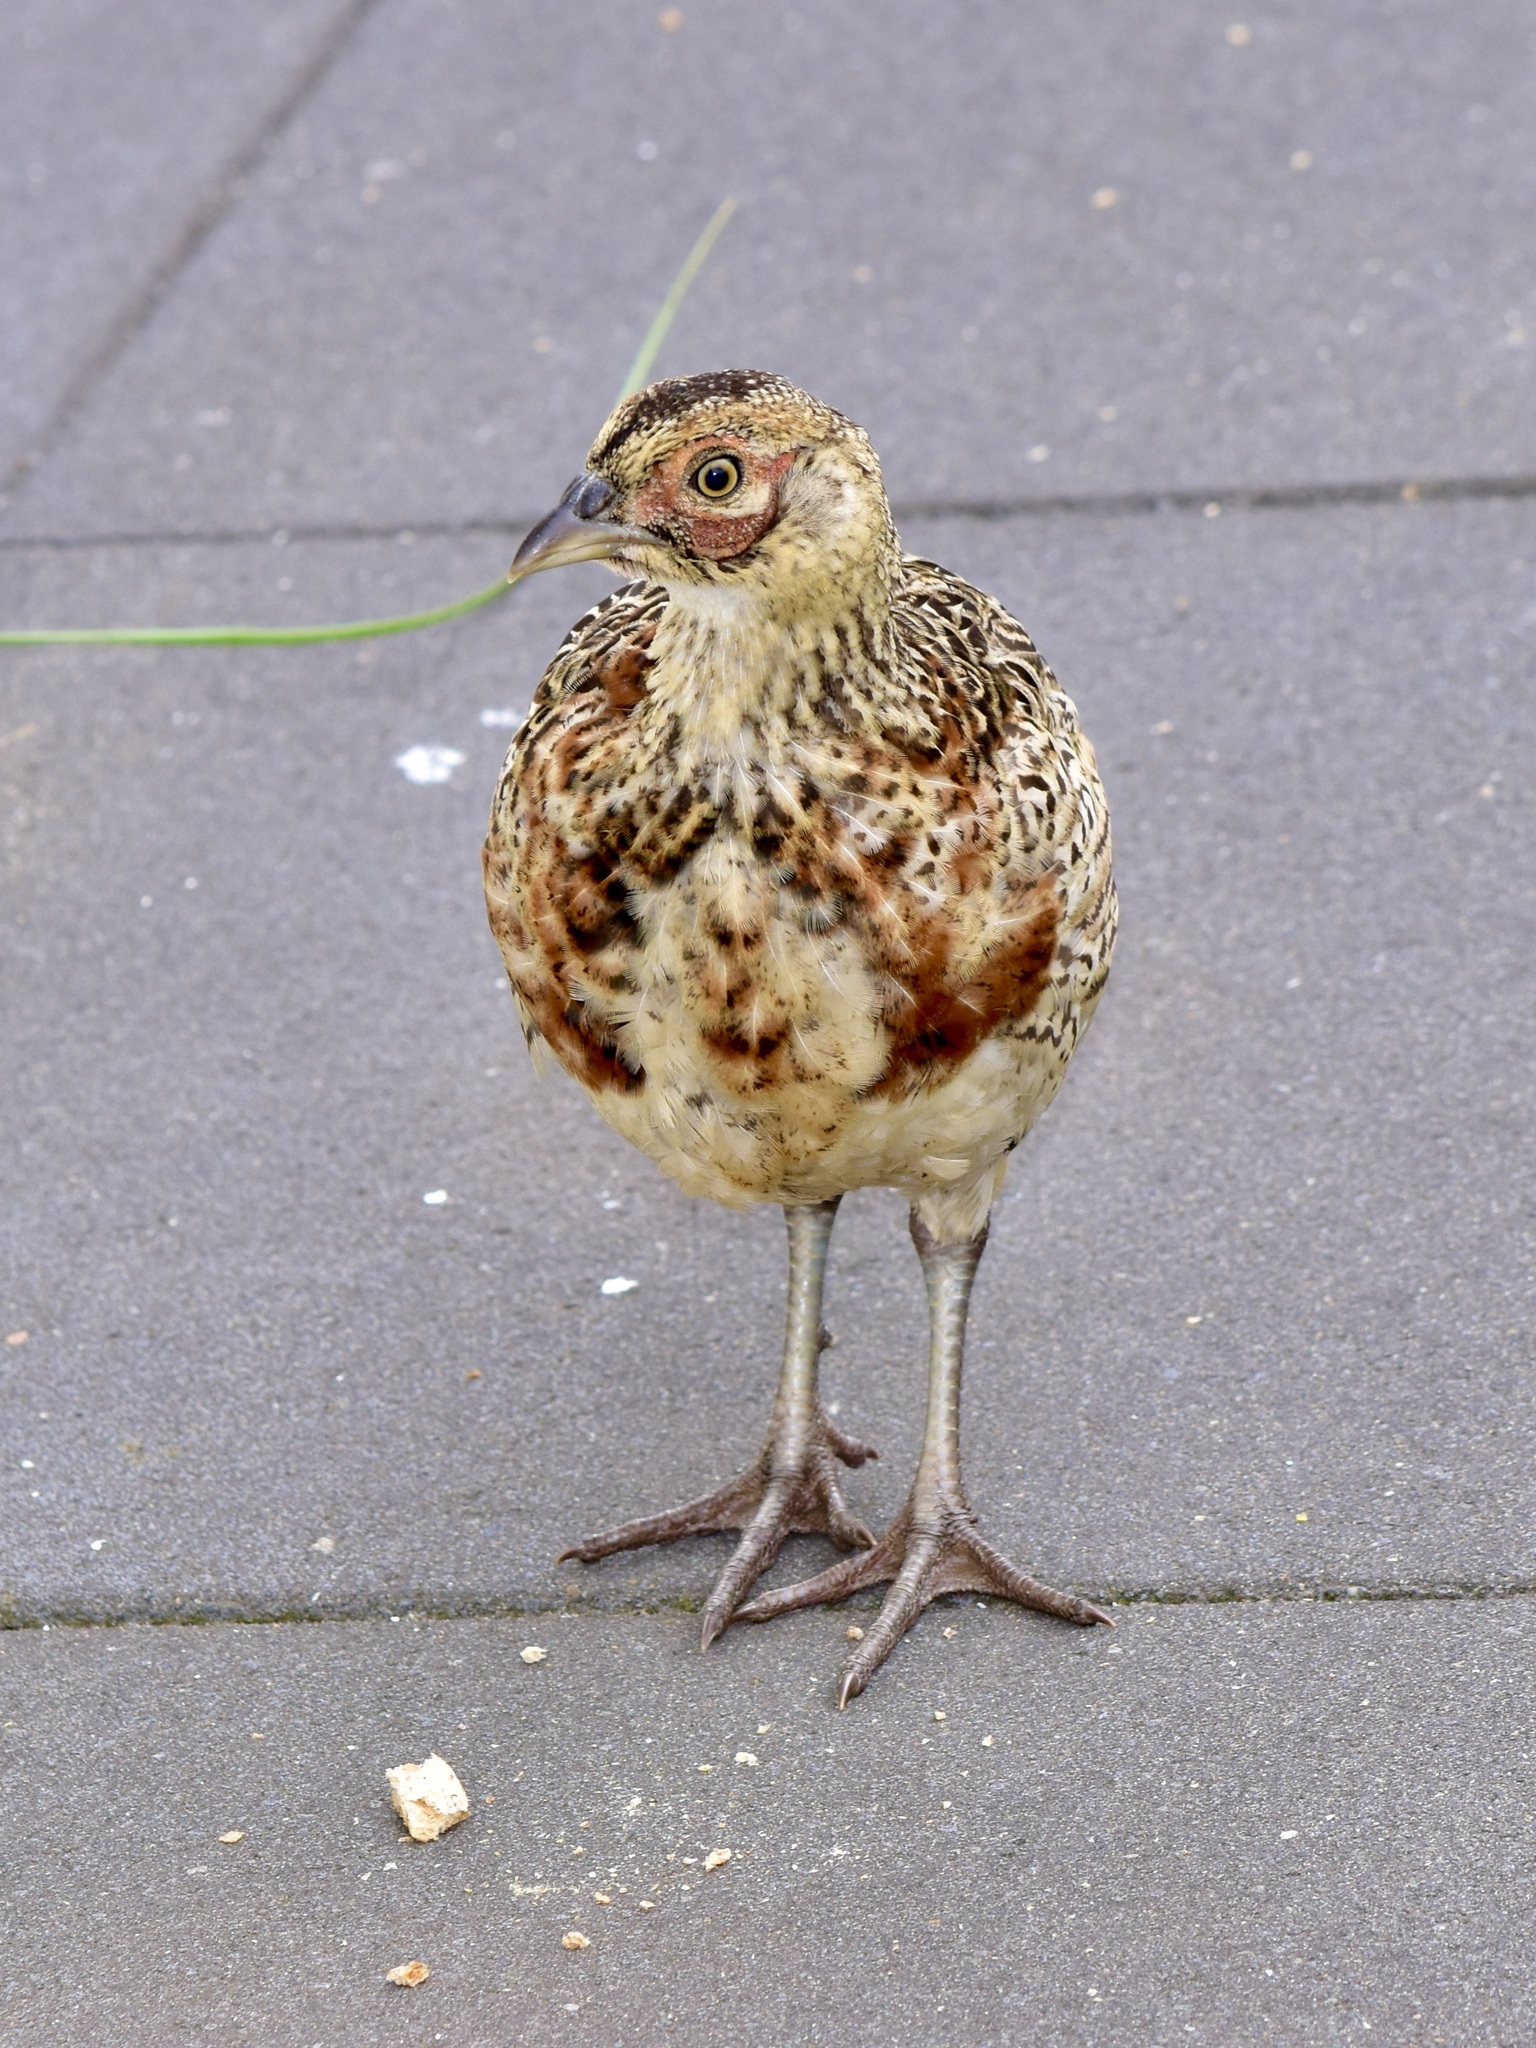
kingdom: Animalia
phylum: Chordata
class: Aves
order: Galliformes
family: Phasianidae
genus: Phasianus
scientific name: Phasianus colchicus
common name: Common pheasant
